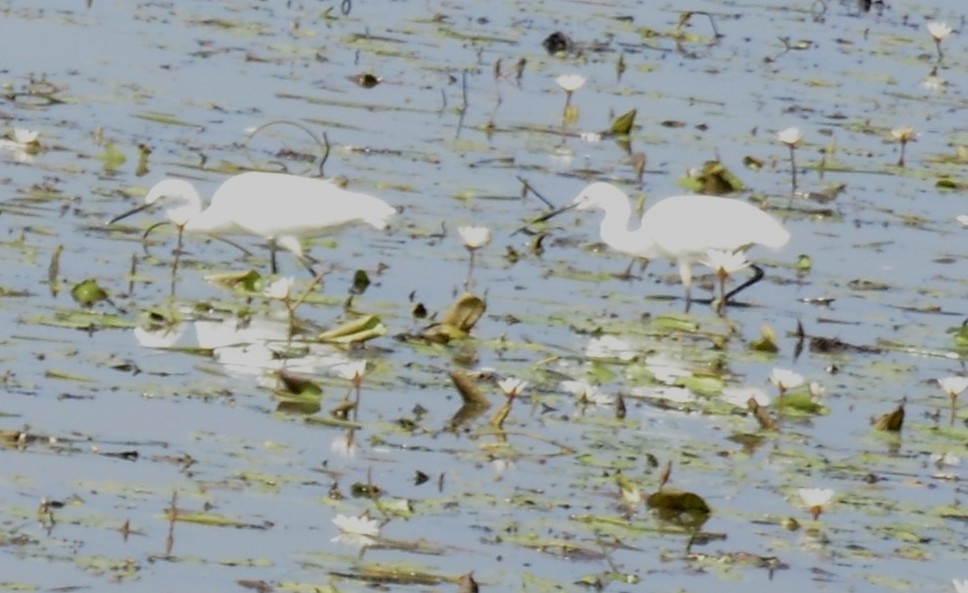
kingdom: Animalia
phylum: Chordata
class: Aves
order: Pelecaniformes
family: Ardeidae
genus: Egretta
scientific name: Egretta garzetta
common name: Little egret
